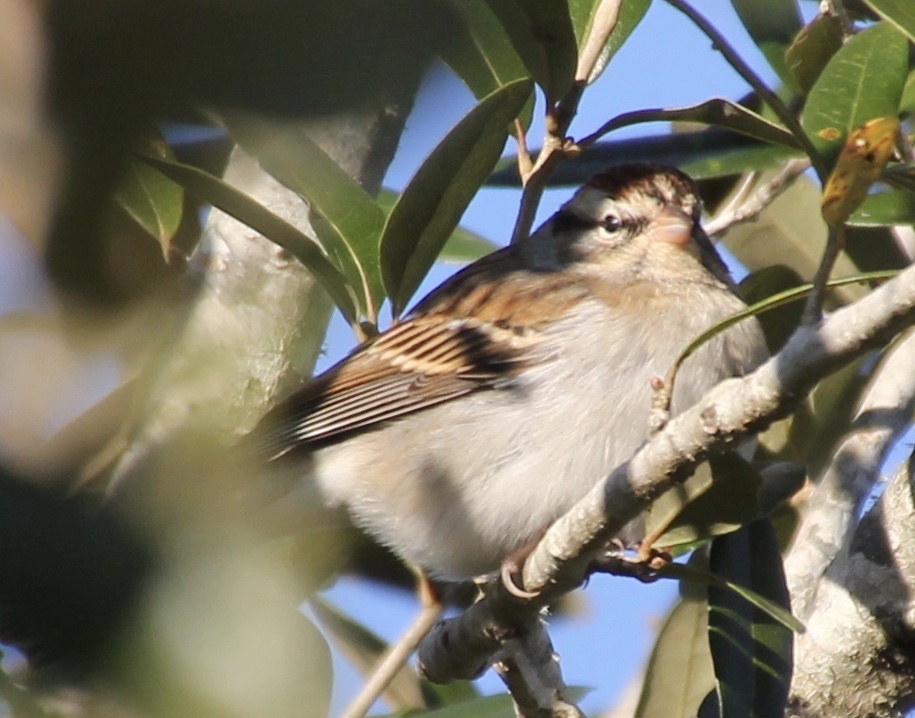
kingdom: Animalia
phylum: Chordata
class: Aves
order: Passeriformes
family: Passerellidae
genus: Spizella
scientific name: Spizella passerina
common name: Chipping sparrow
